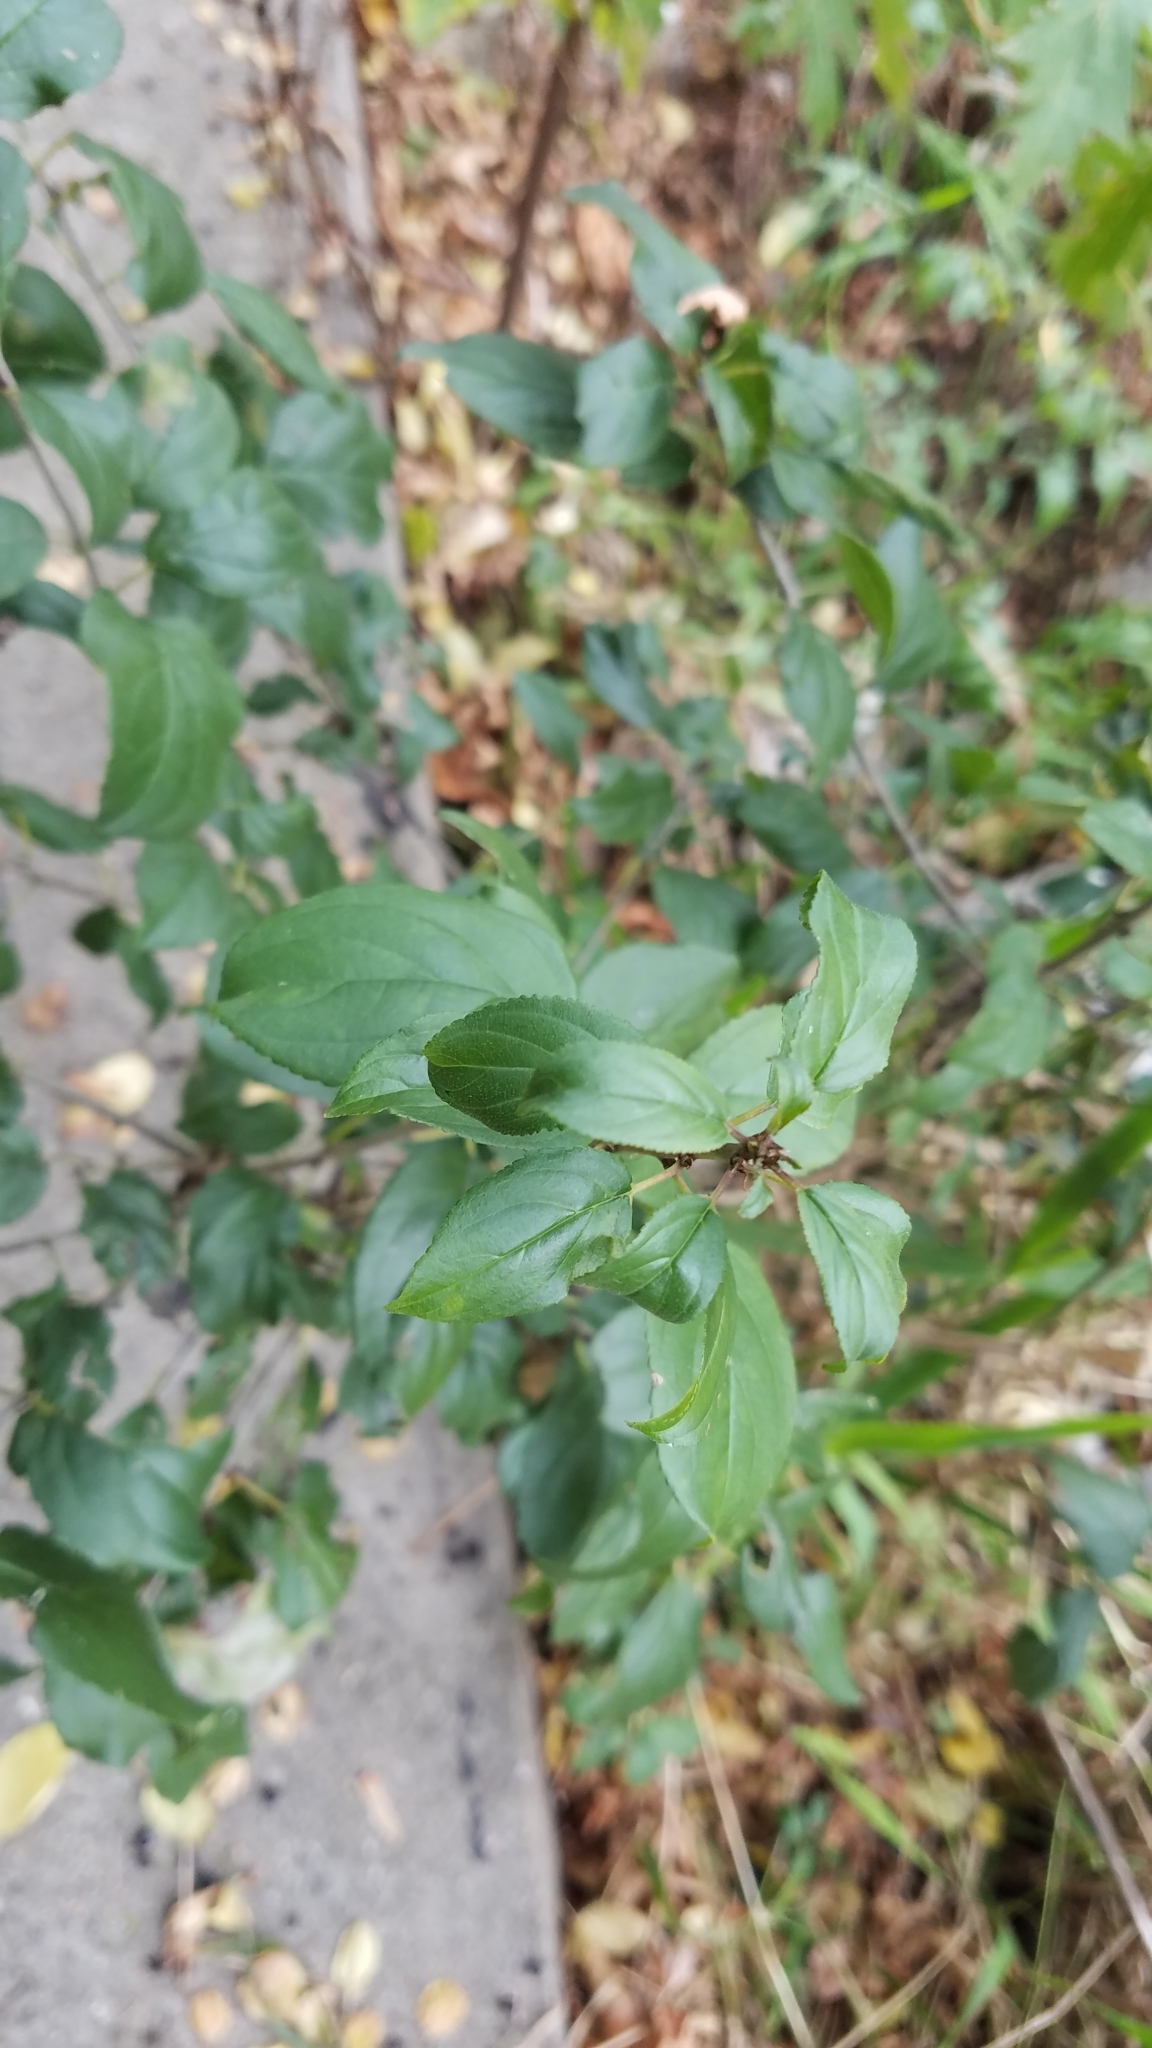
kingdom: Plantae
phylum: Tracheophyta
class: Magnoliopsida
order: Rosales
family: Rhamnaceae
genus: Rhamnus
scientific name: Rhamnus cathartica
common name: Common buckthorn
